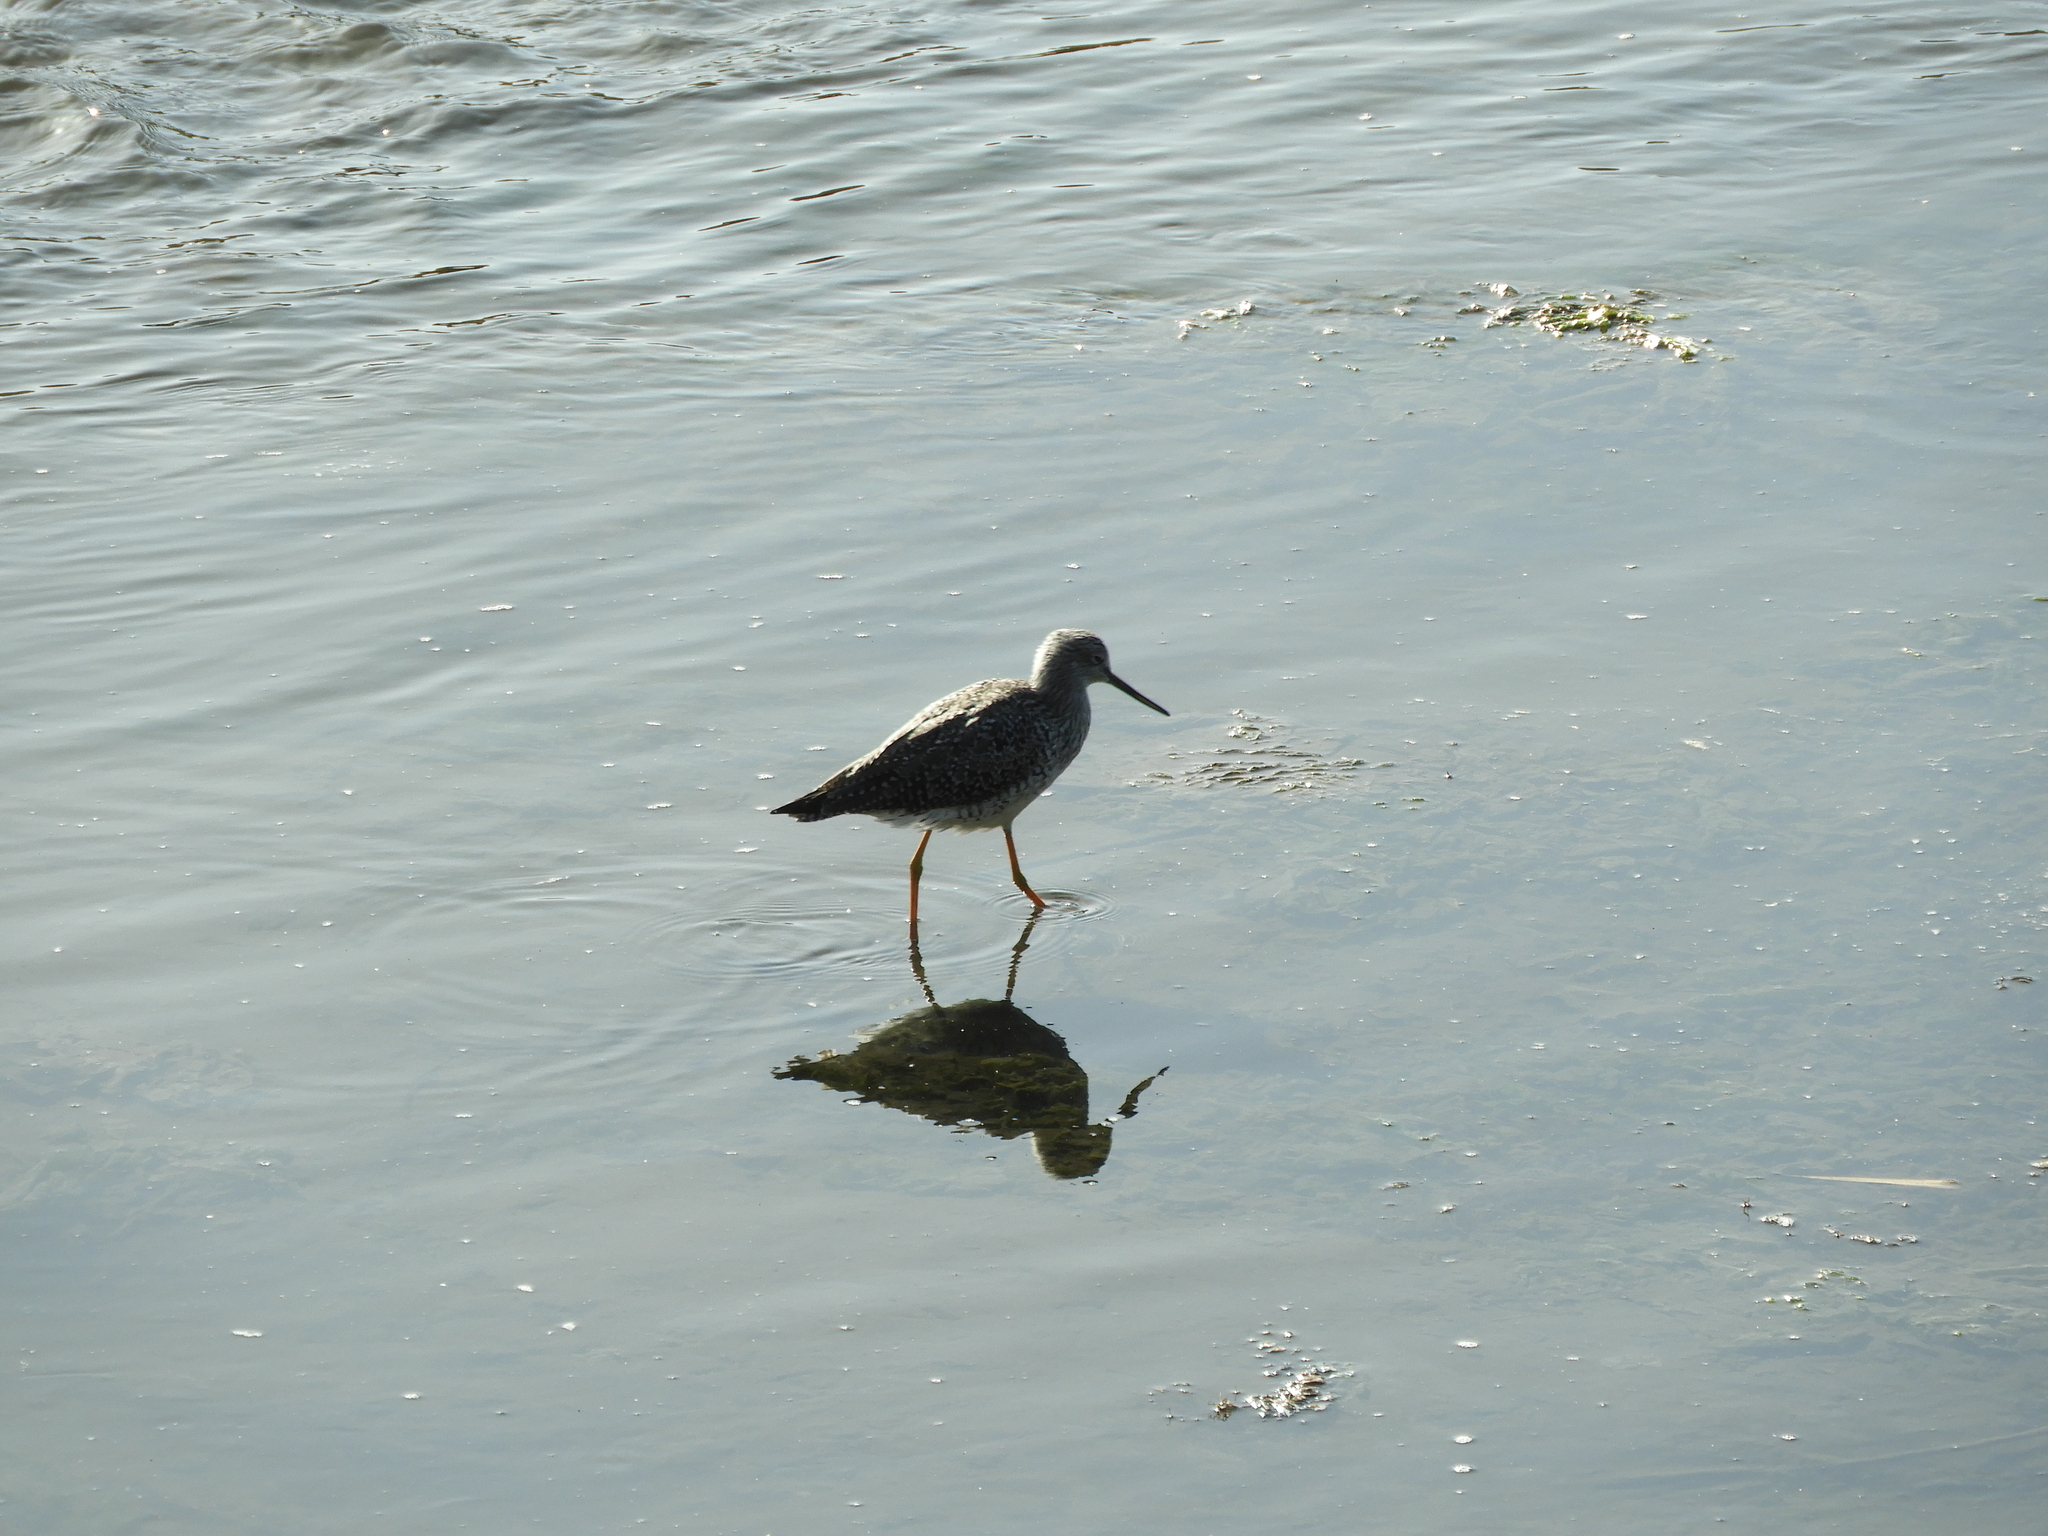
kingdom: Animalia
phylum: Chordata
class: Aves
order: Charadriiformes
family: Scolopacidae
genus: Tringa
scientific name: Tringa melanoleuca
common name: Greater yellowlegs
